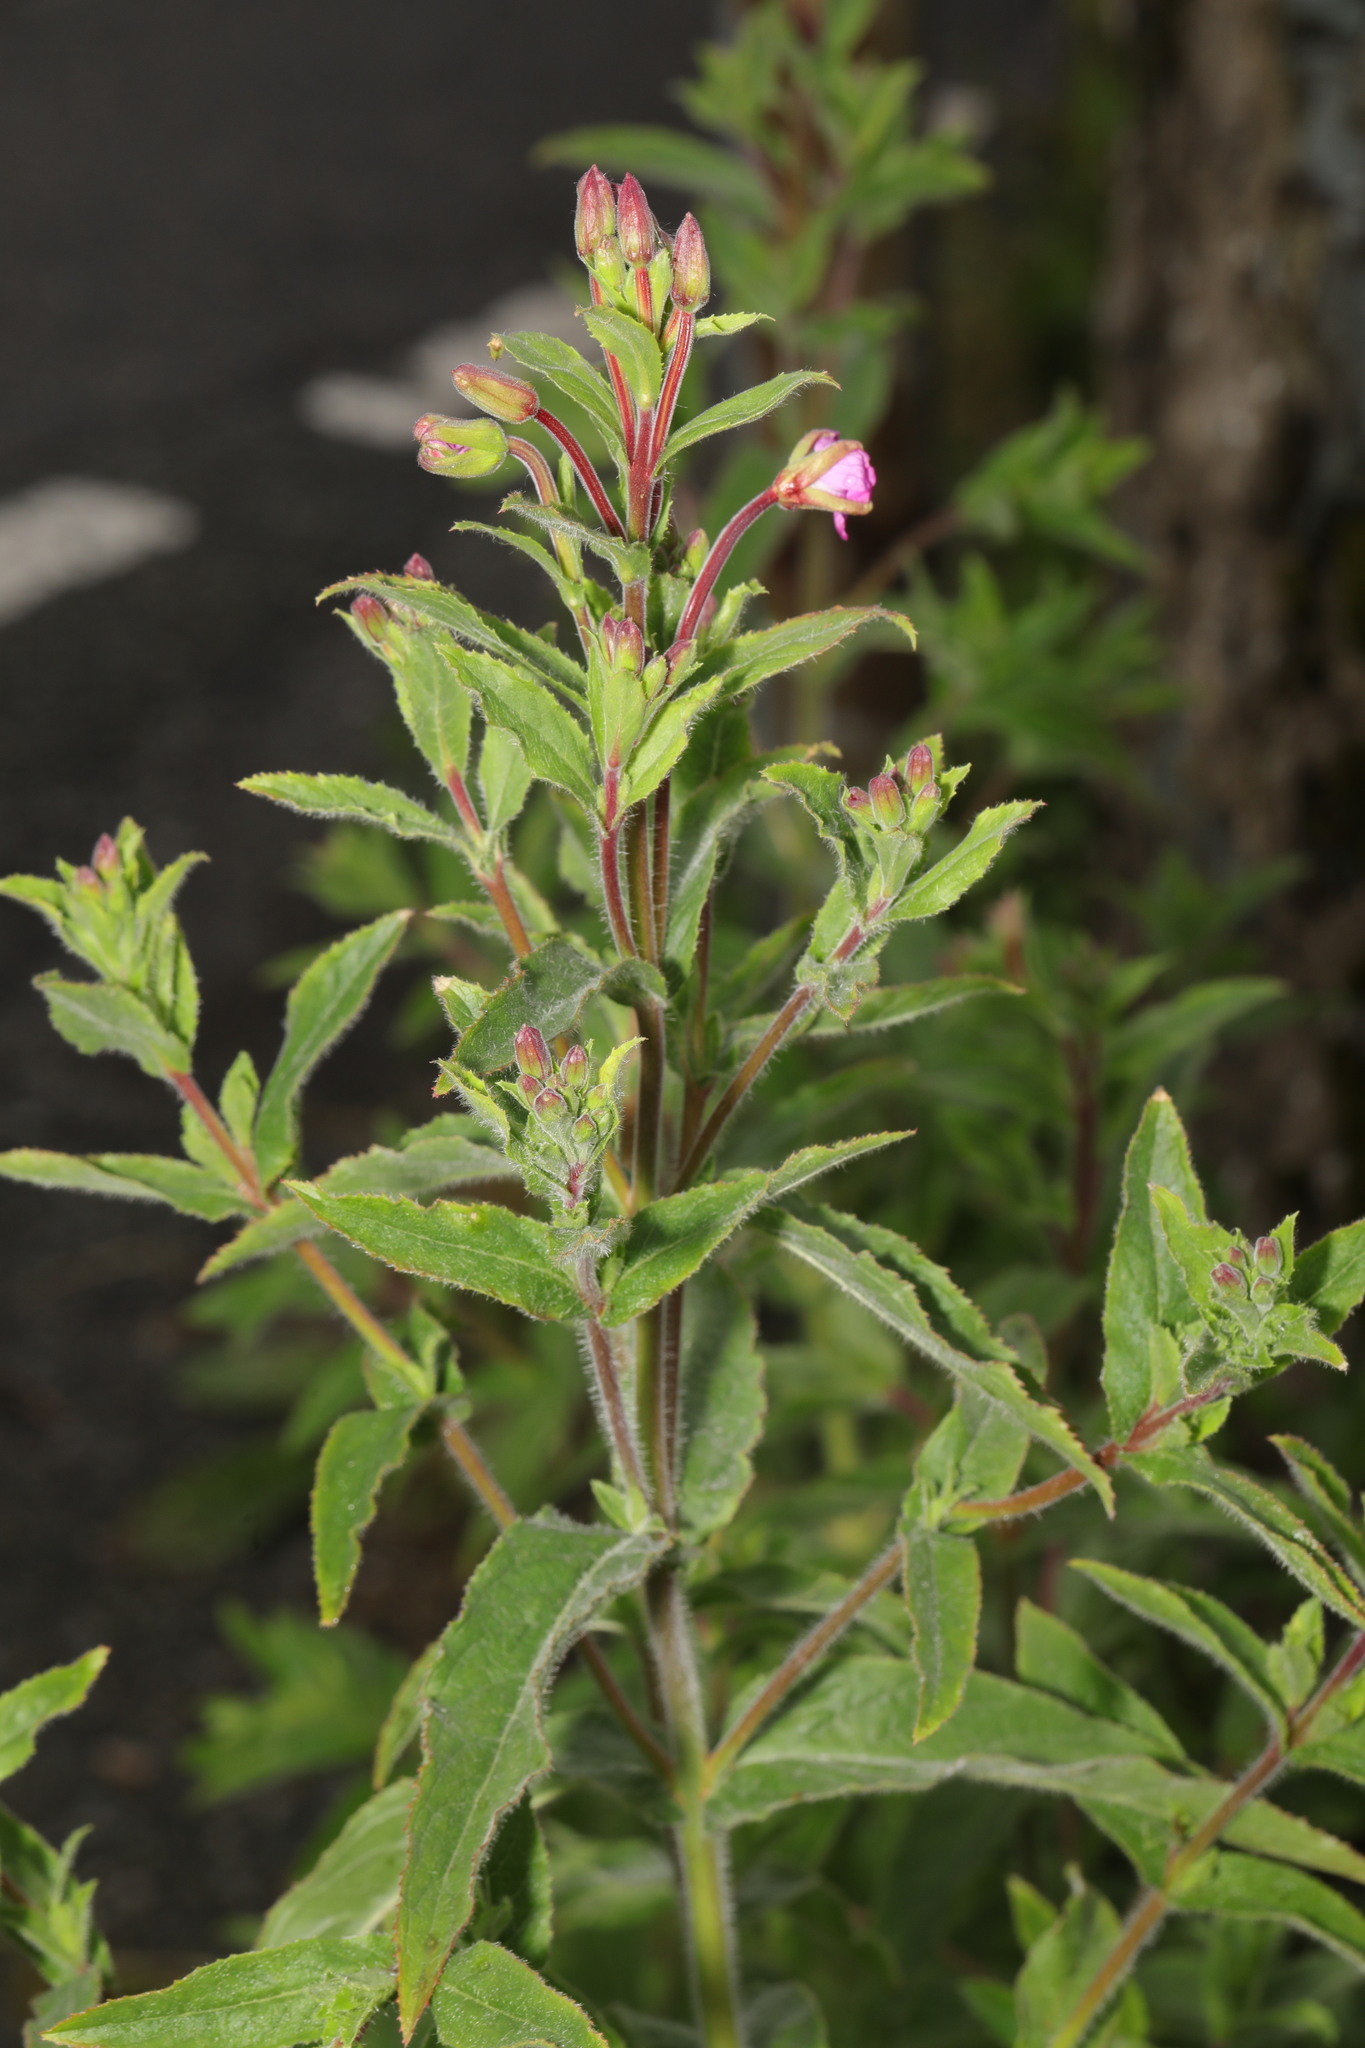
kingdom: Plantae
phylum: Tracheophyta
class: Magnoliopsida
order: Myrtales
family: Onagraceae
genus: Epilobium
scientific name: Epilobium hirsutum
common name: Great willowherb
